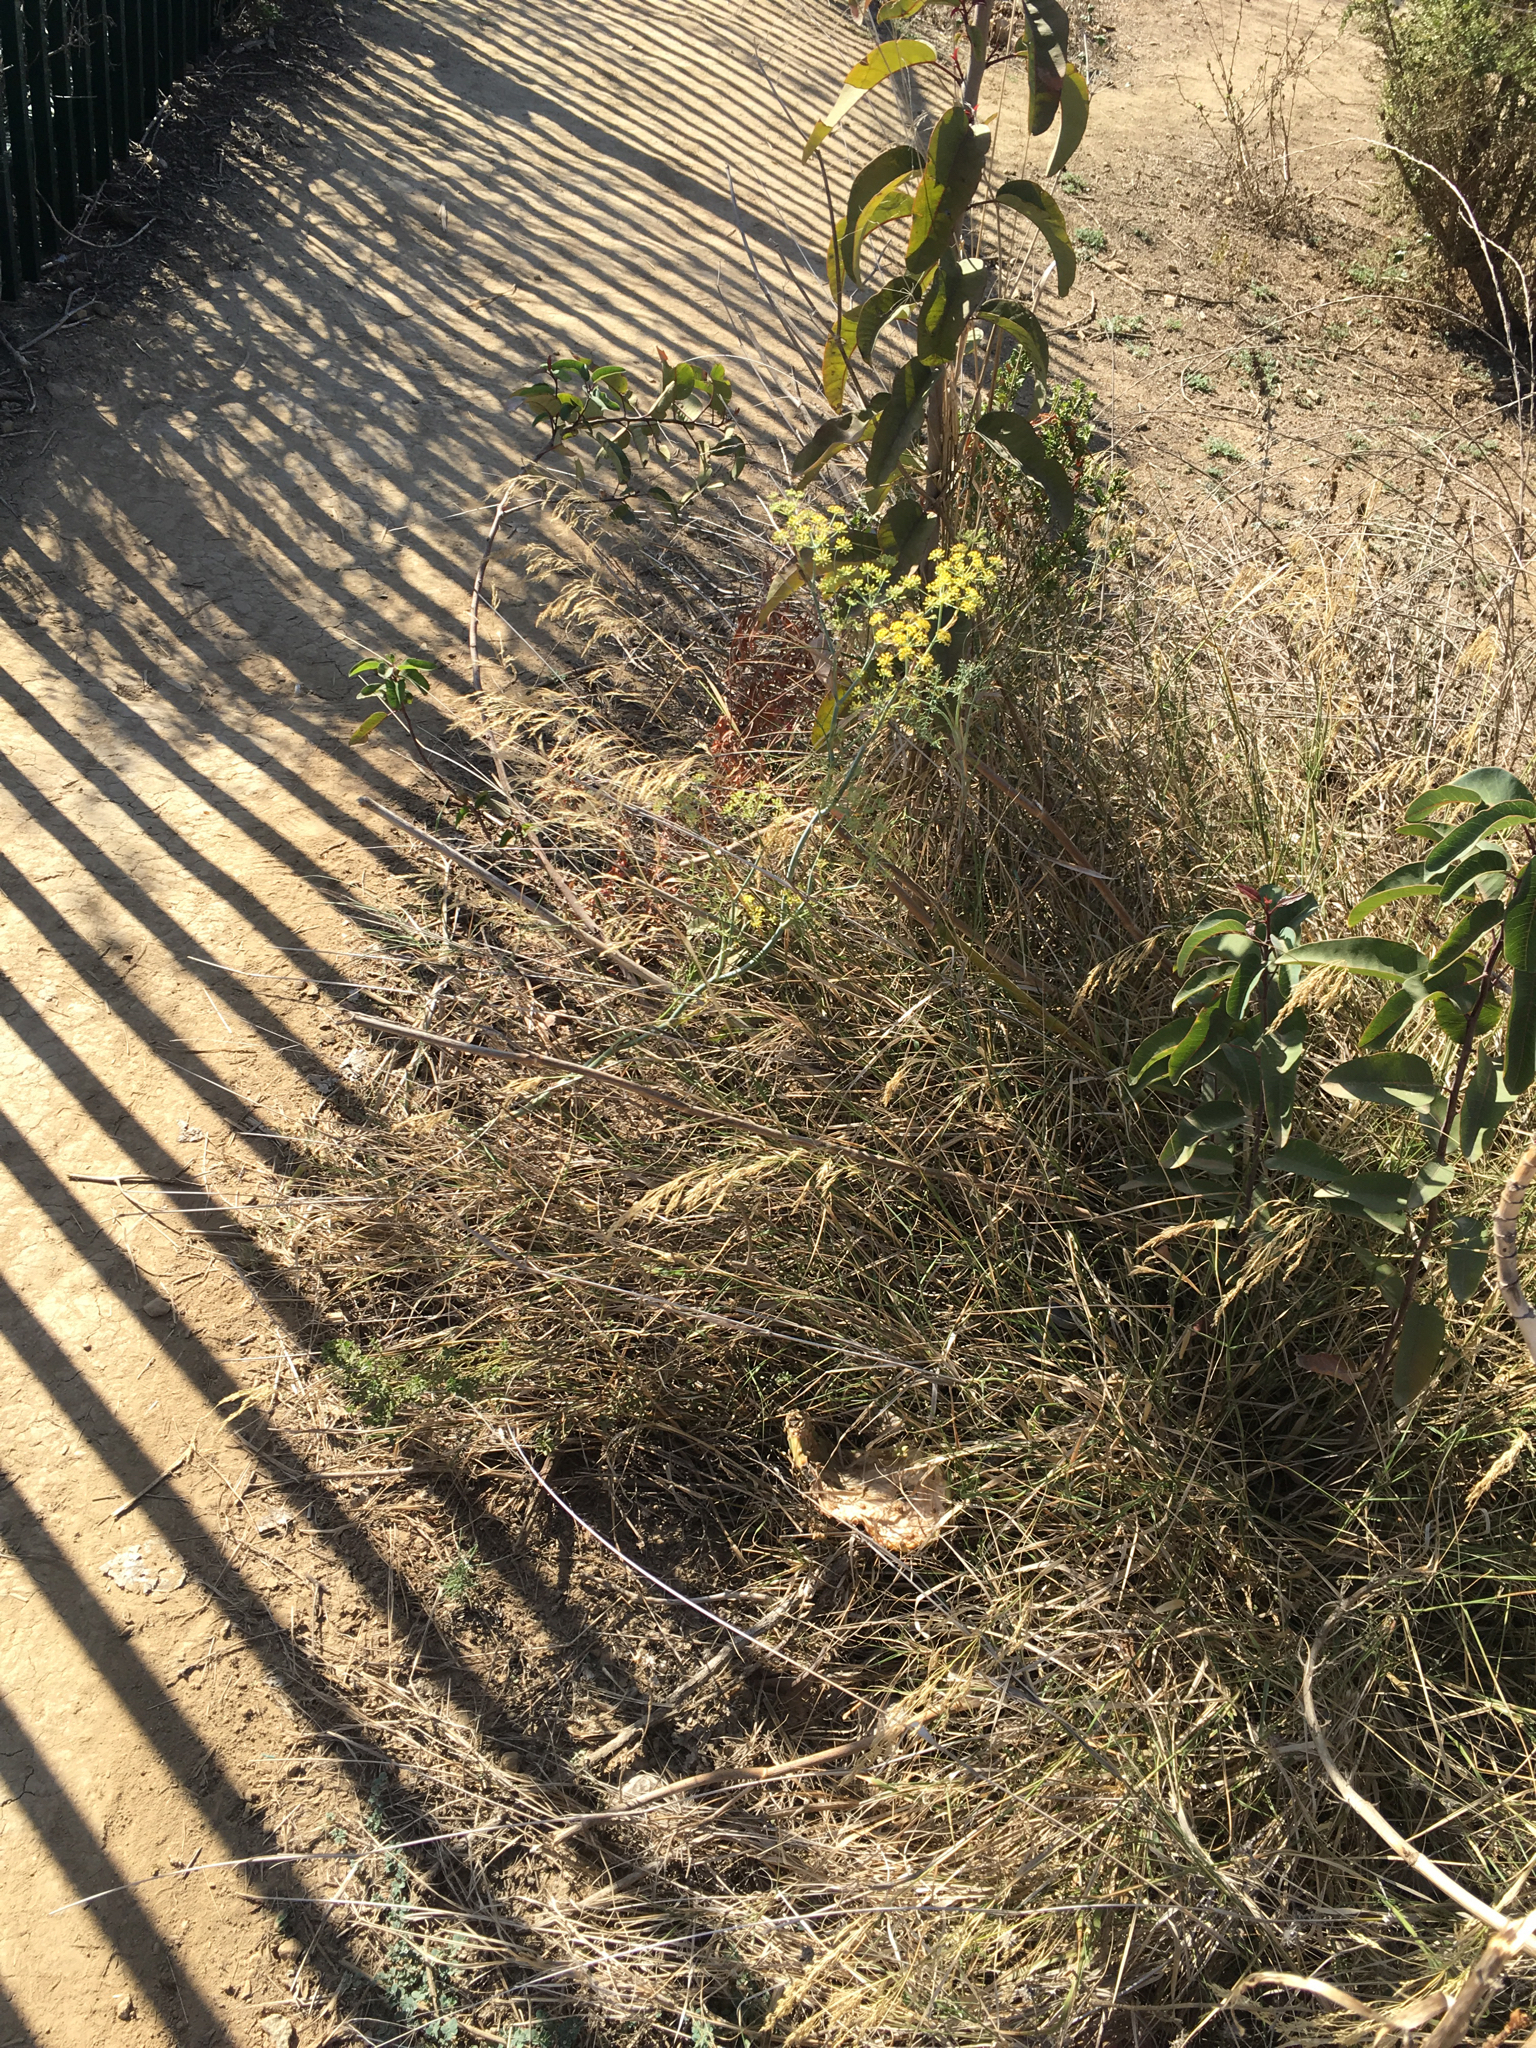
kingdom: Plantae
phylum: Tracheophyta
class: Liliopsida
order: Poales
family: Poaceae
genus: Oloptum
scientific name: Oloptum miliaceum
